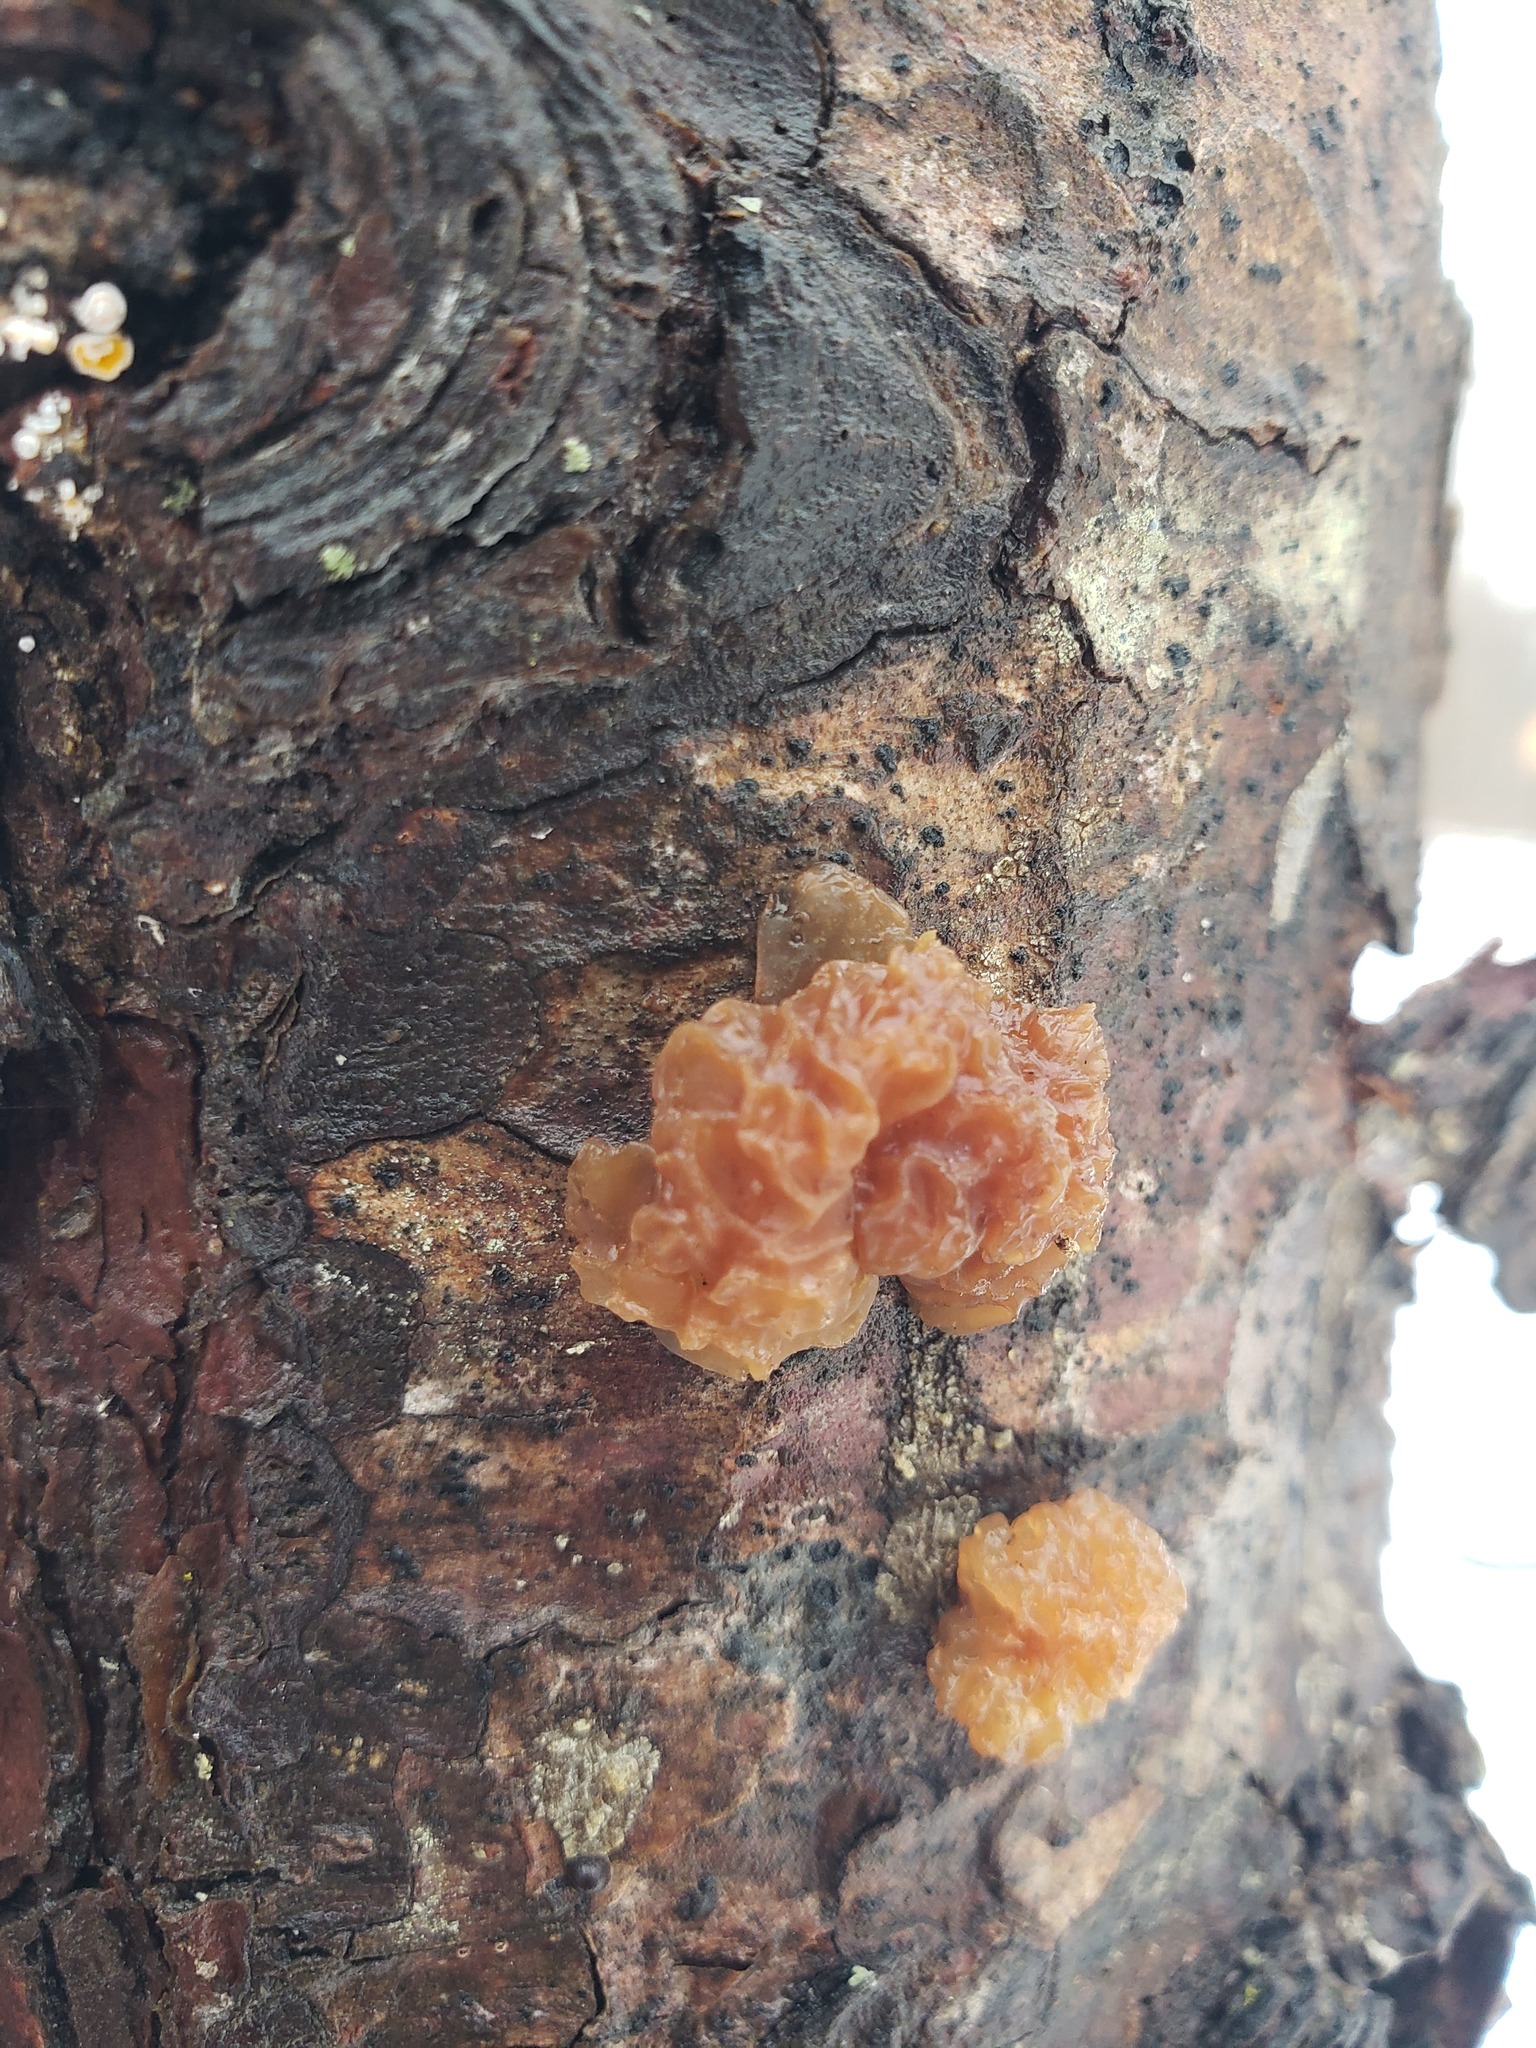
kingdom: Fungi
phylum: Basidiomycota
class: Tremellomycetes
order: Tremellales
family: Tremellaceae
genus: Phaeotremella
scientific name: Phaeotremella foliacea
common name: Leafy brain
